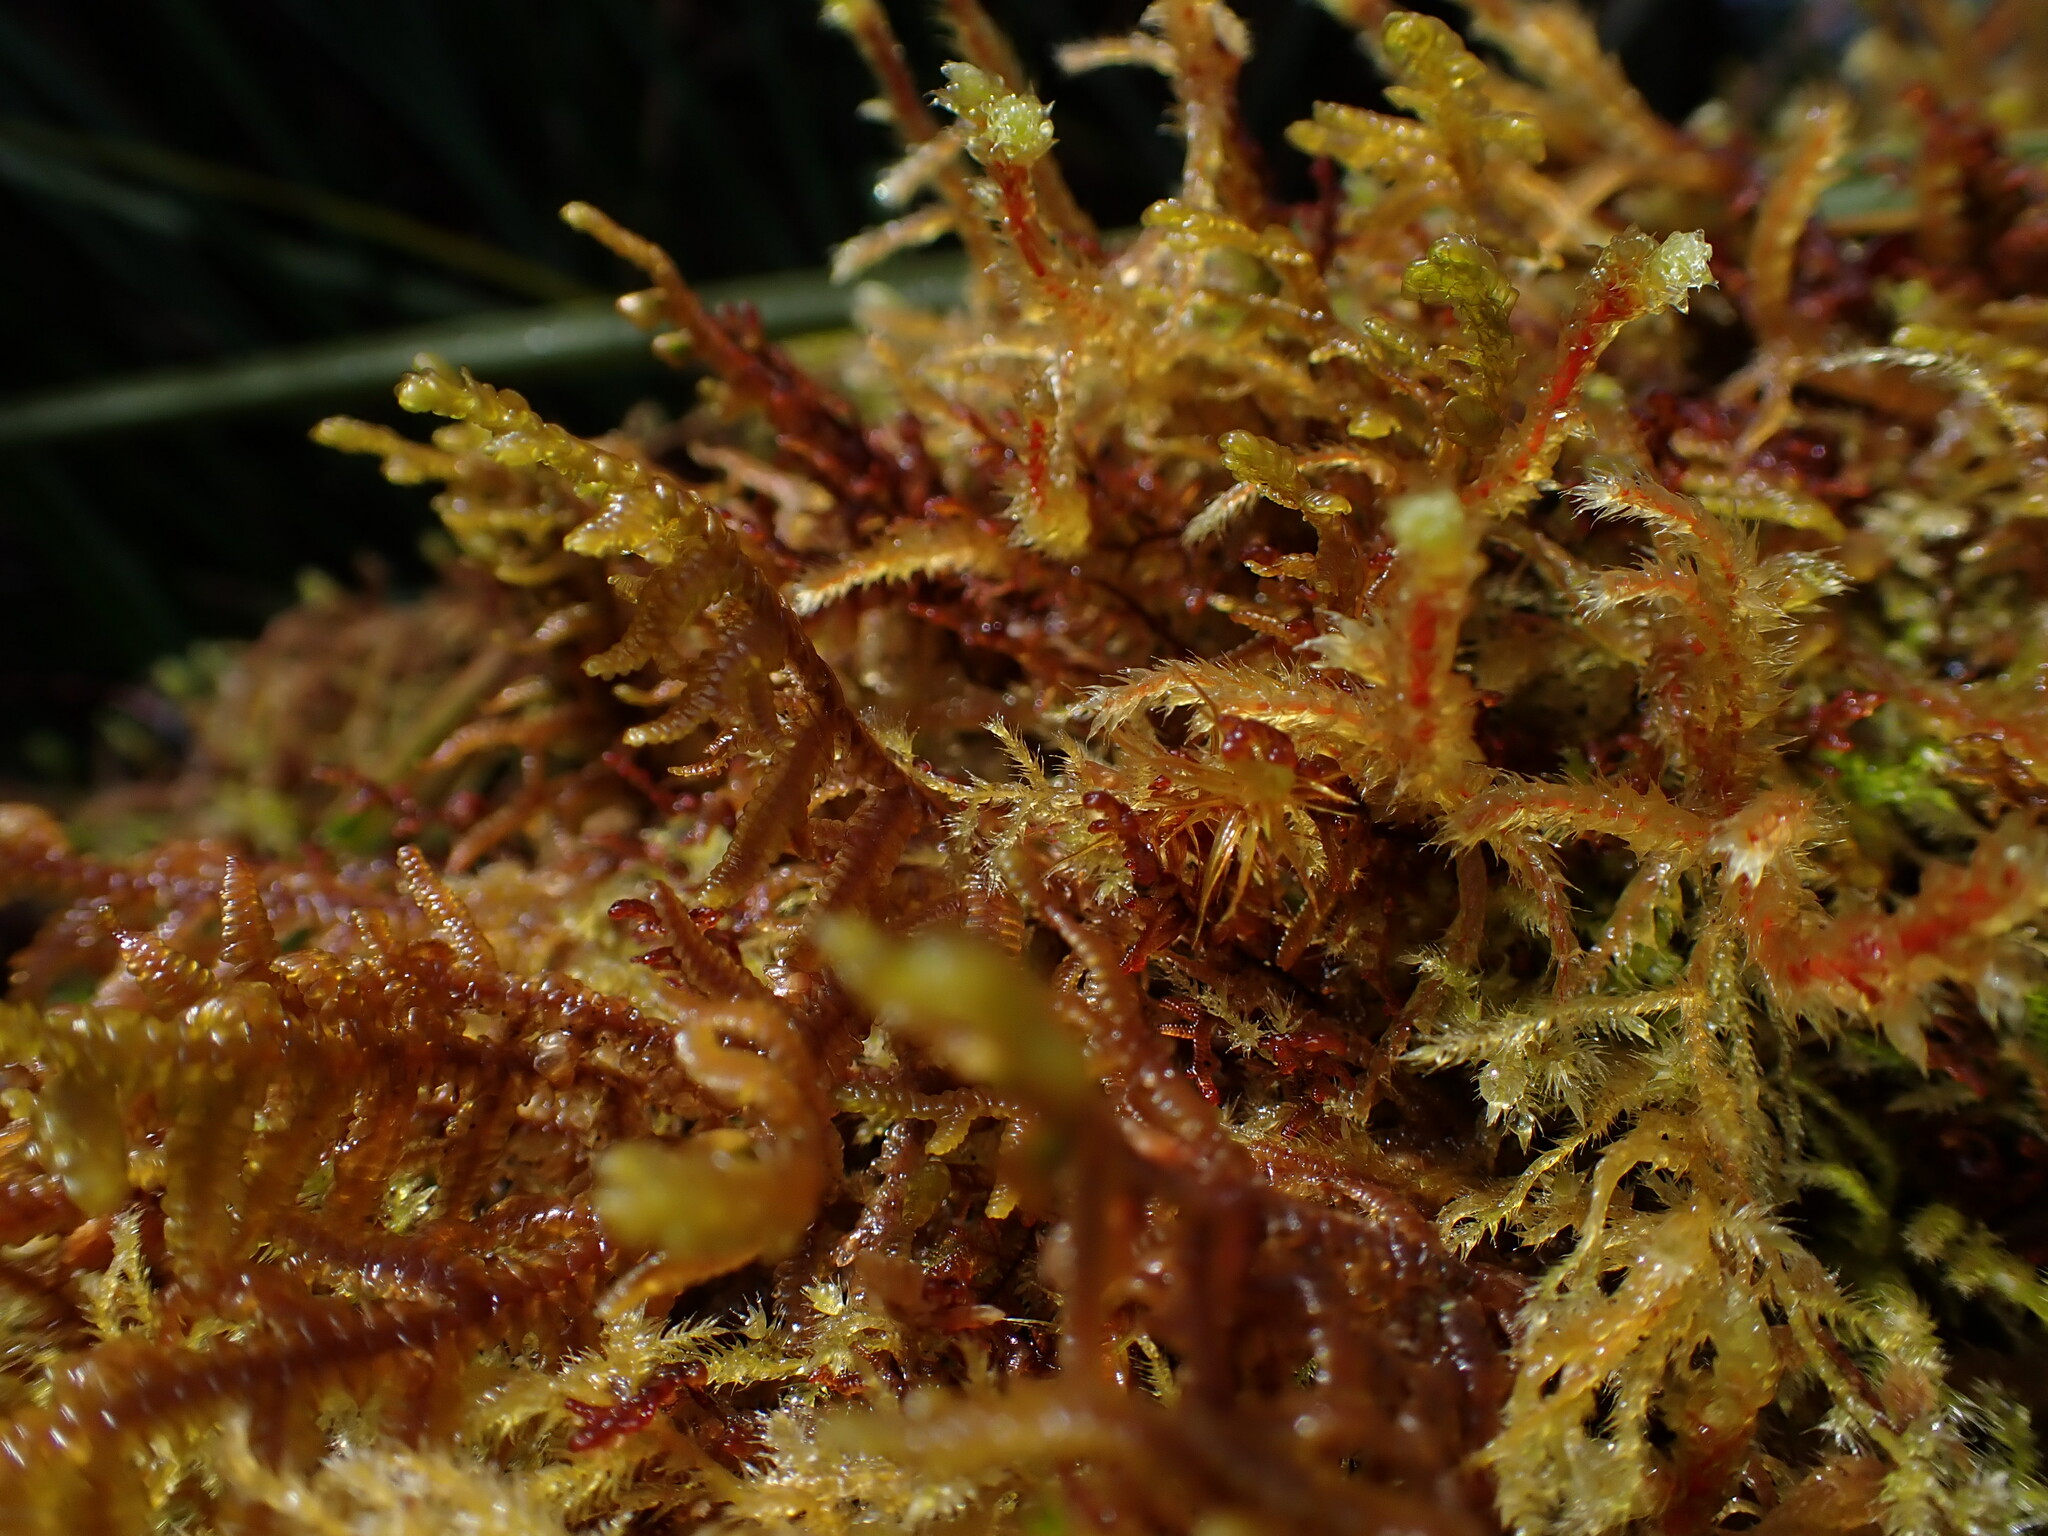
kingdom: Plantae
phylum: Marchantiophyta
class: Jungermanniopsida
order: Porellales
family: Porellaceae
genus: Porella
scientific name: Porella navicularis
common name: Tree ruffle liverwort
